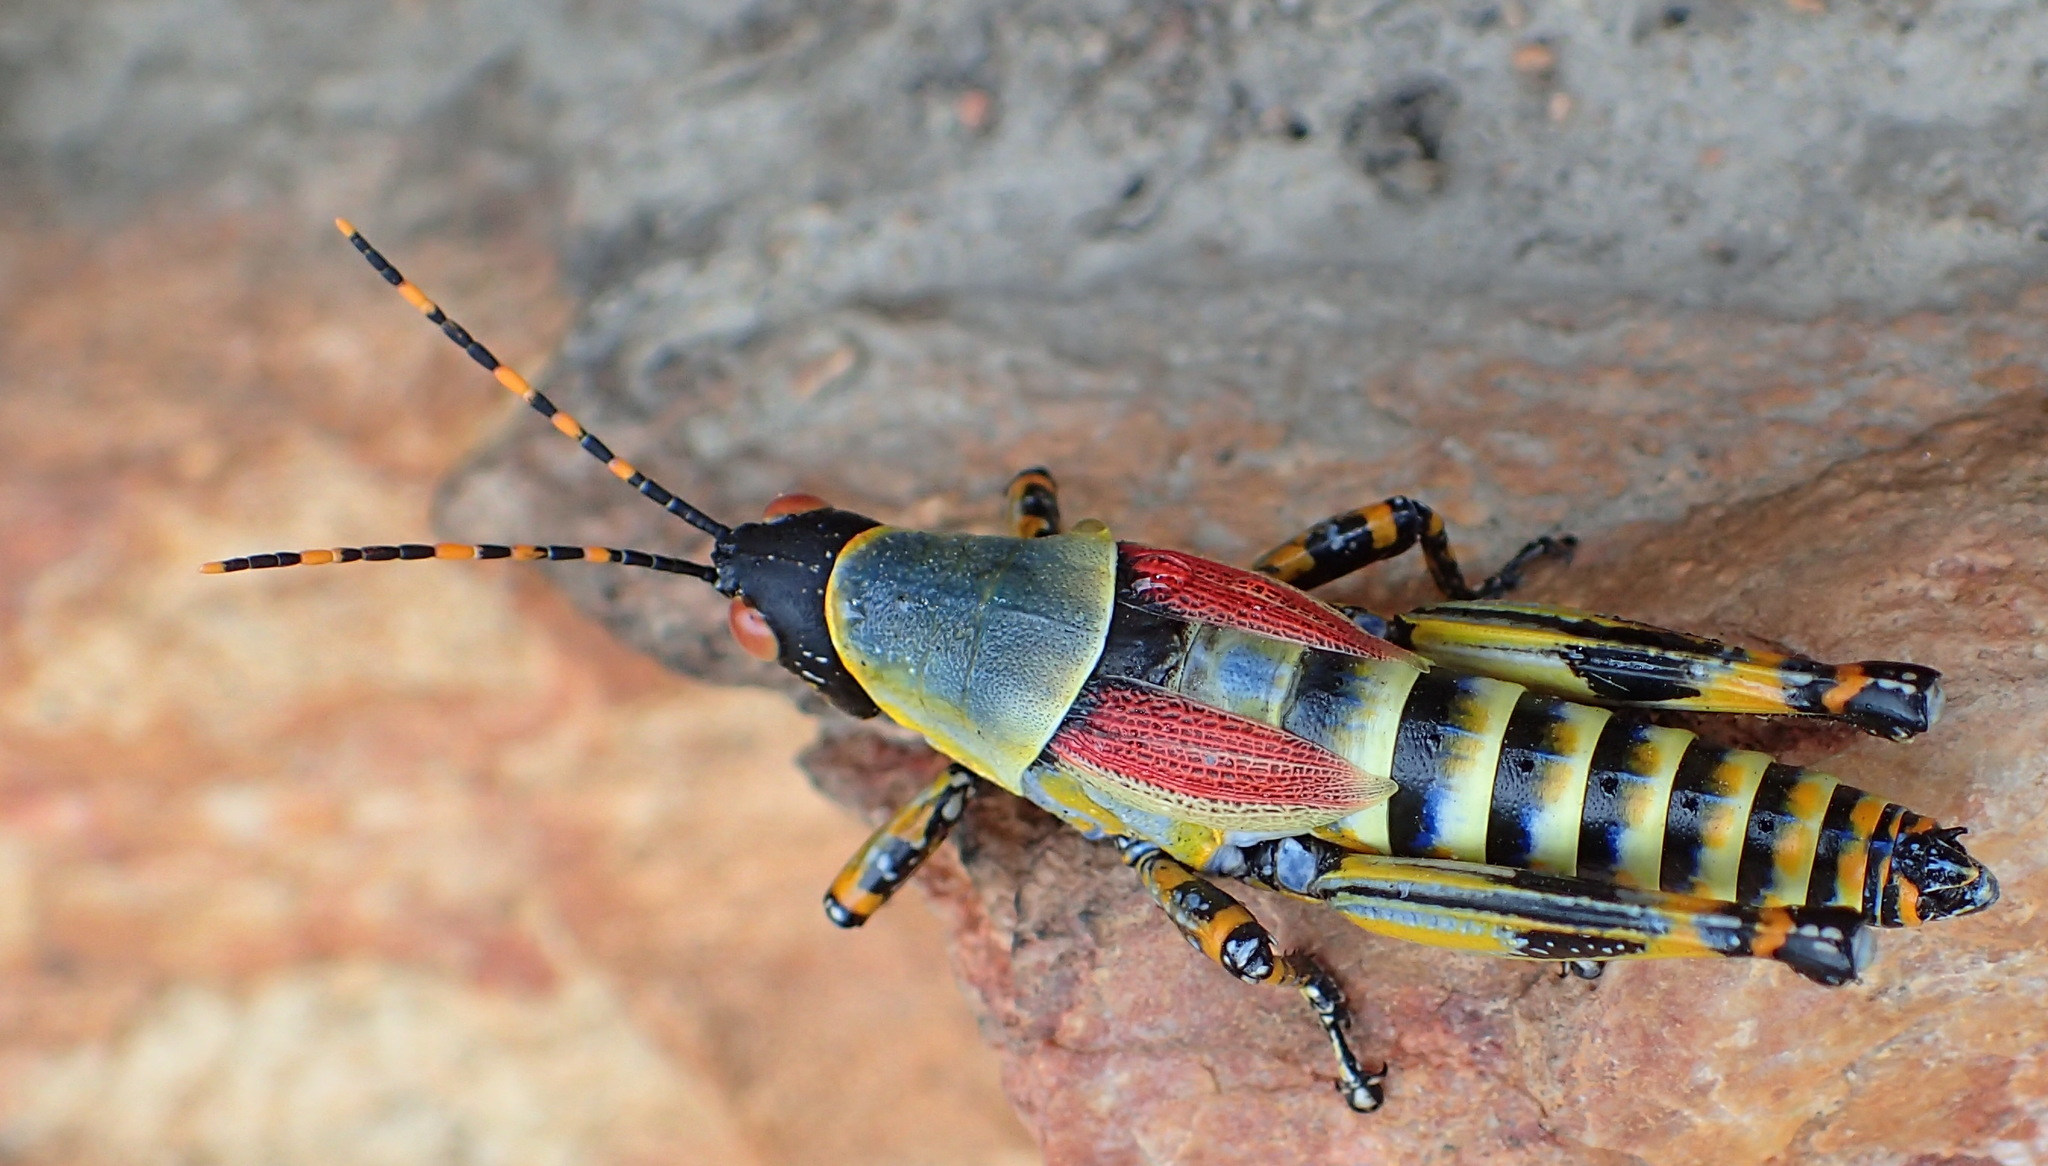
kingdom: Animalia
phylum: Arthropoda
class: Insecta
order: Orthoptera
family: Pyrgomorphidae
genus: Zonocerus
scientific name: Zonocerus elegans
